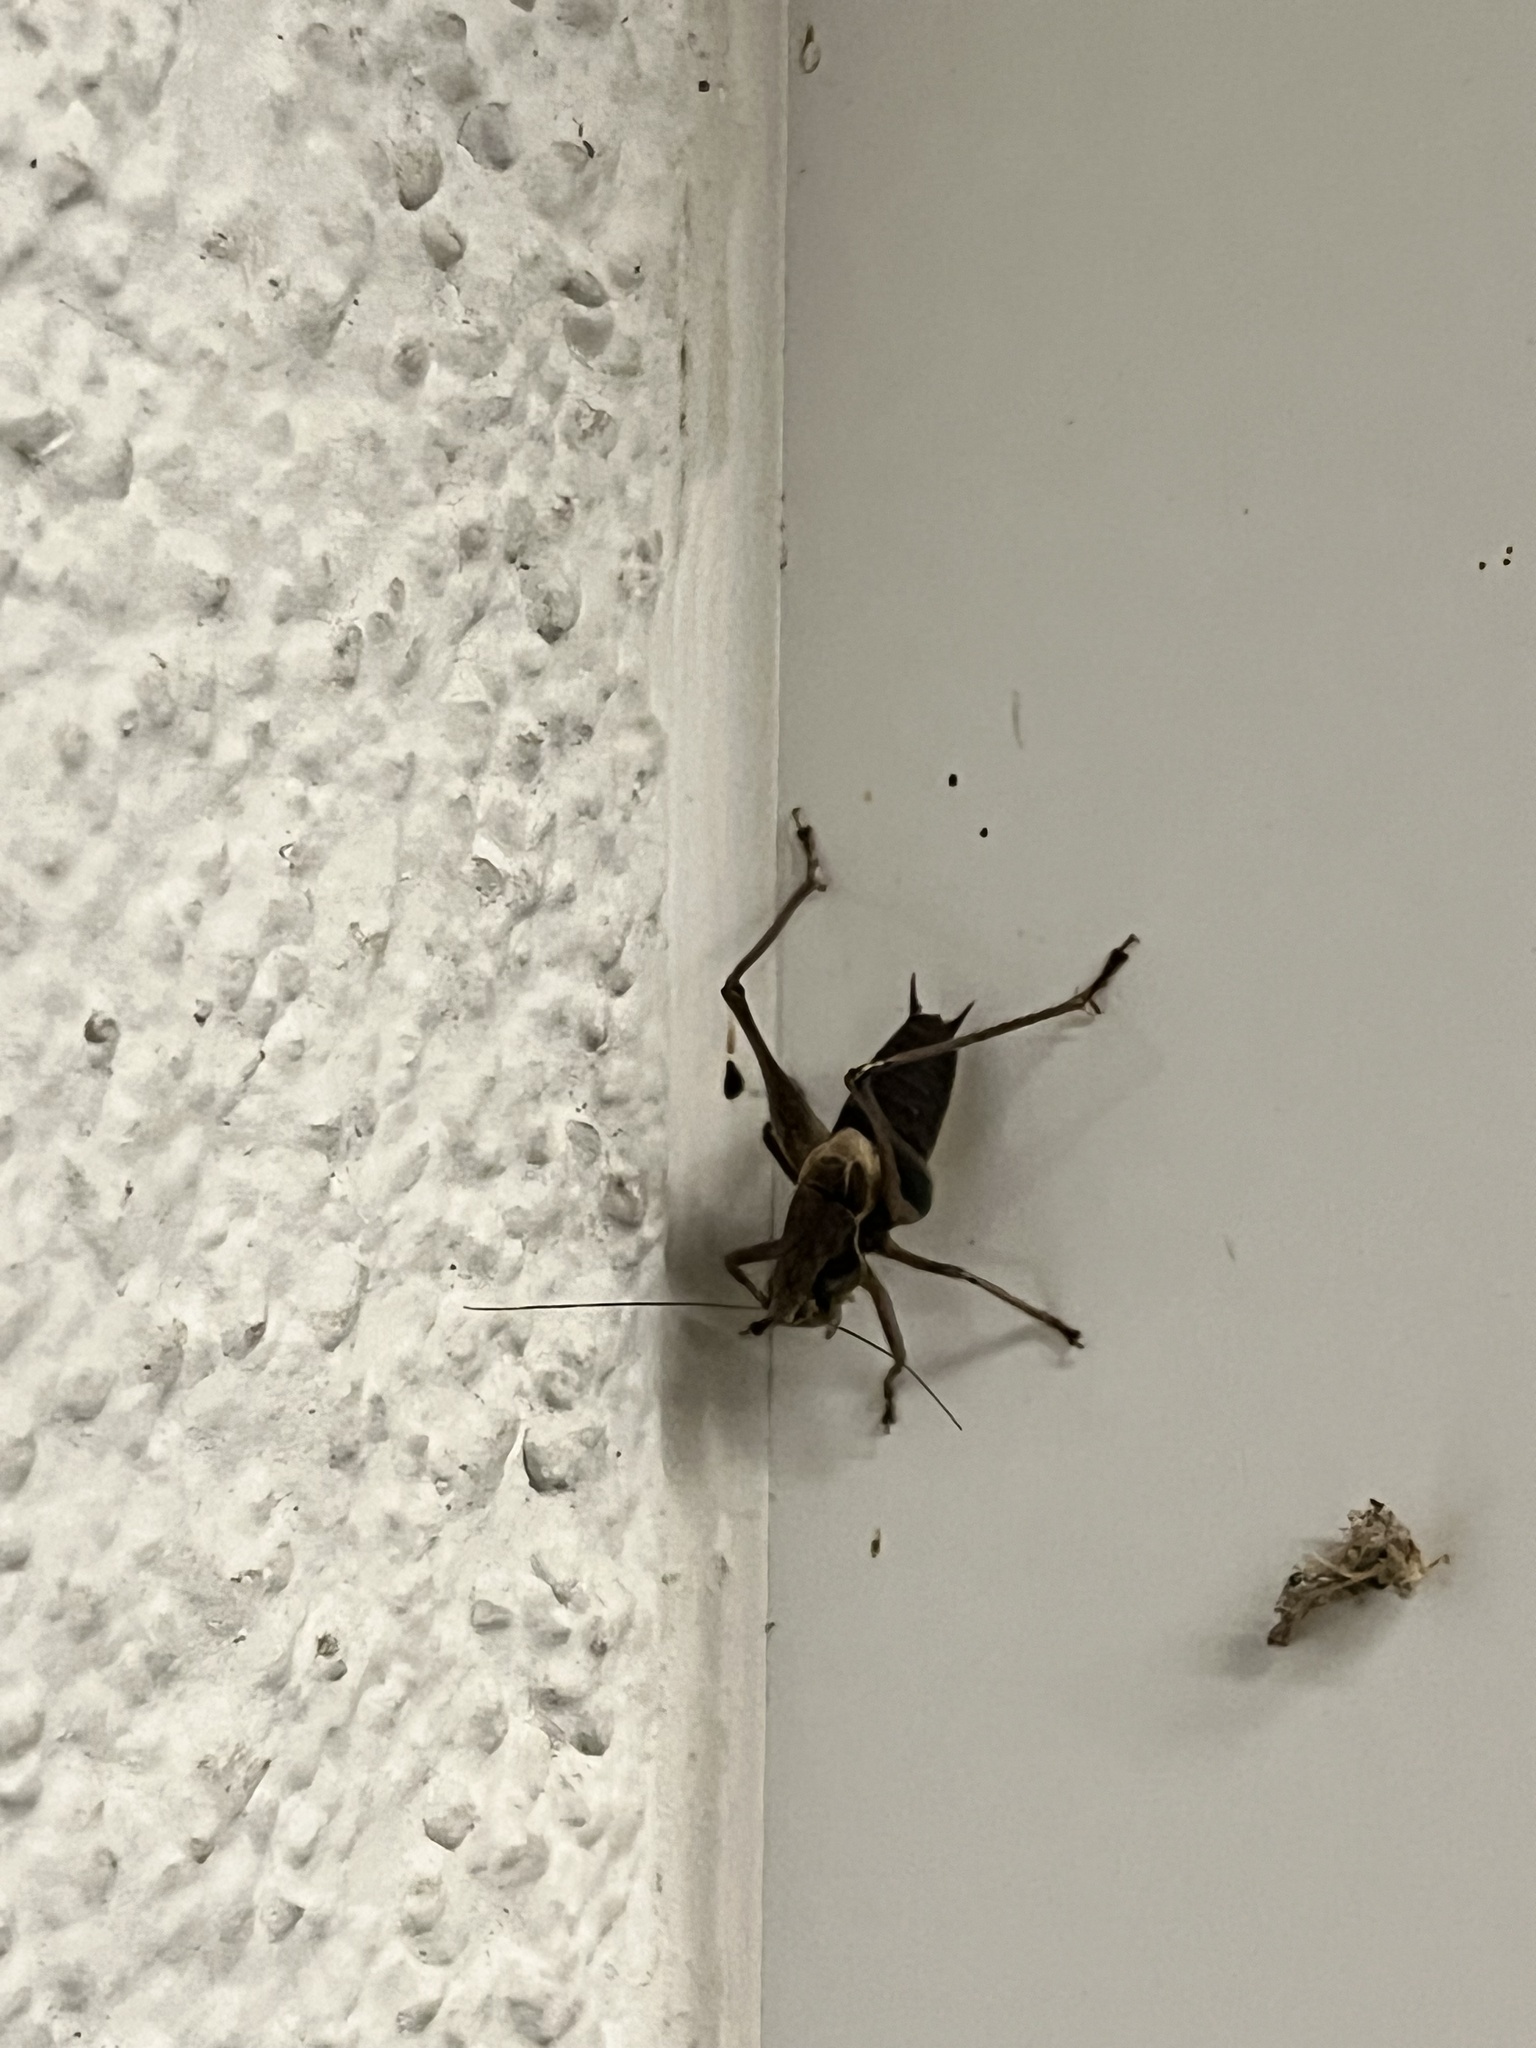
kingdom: Animalia
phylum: Arthropoda
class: Insecta
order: Orthoptera
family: Tettigoniidae
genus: Pholidoptera
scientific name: Pholidoptera griseoaptera
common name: Dark bush-cricket
